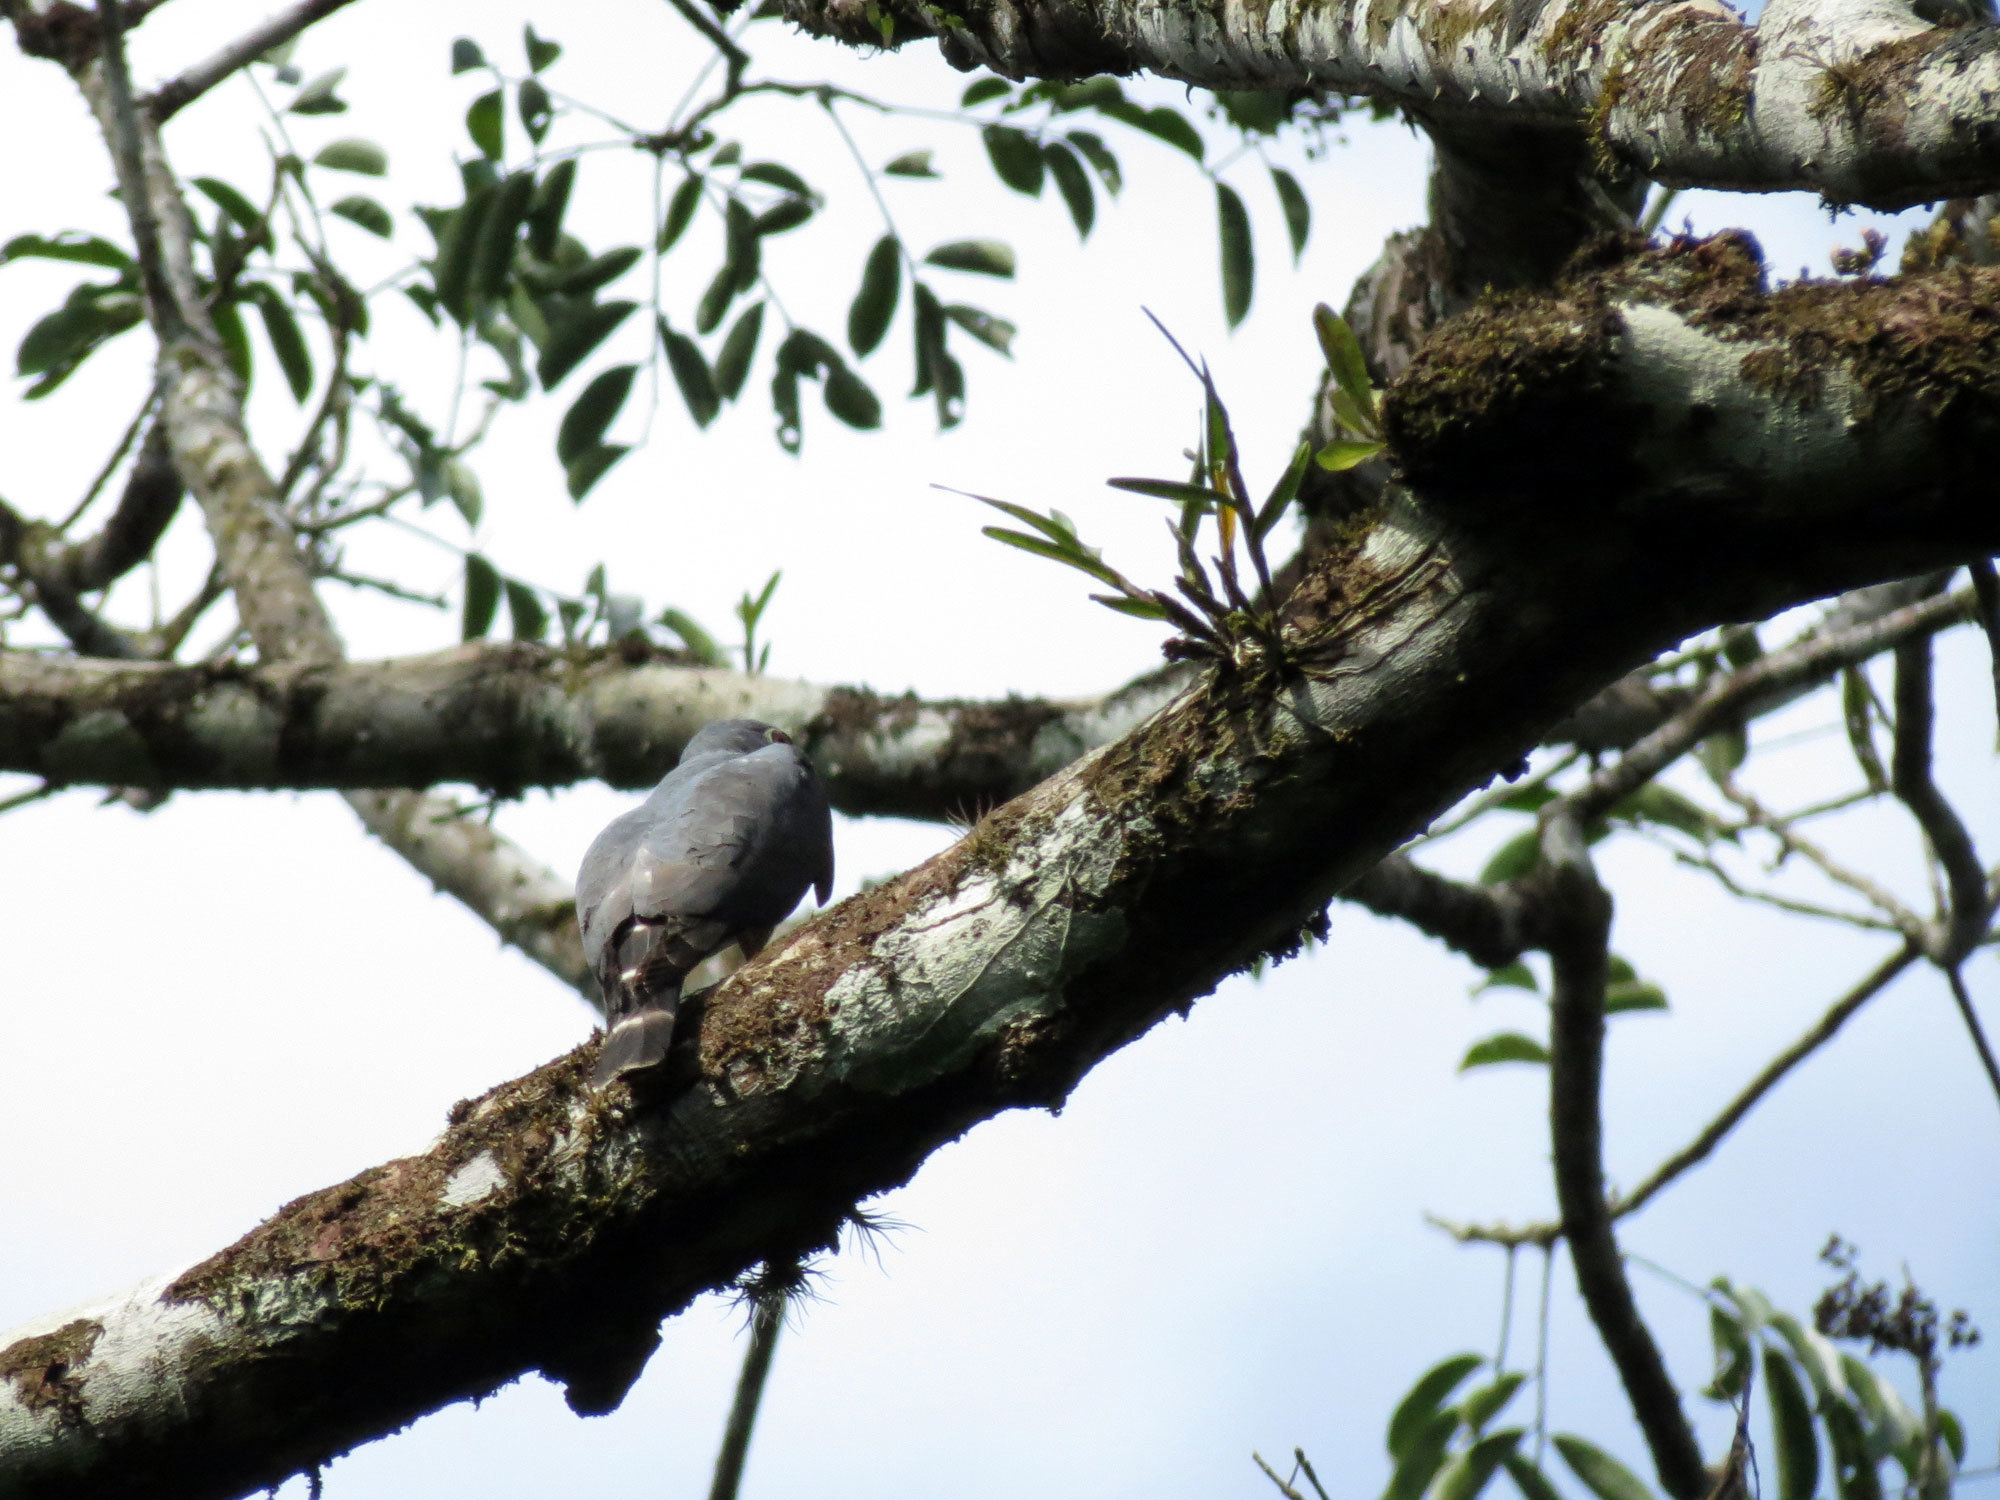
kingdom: Animalia
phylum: Chordata
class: Aves
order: Accipitriformes
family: Accipitridae
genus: Harpagus
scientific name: Harpagus bidentatus
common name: Double-toothed kite
